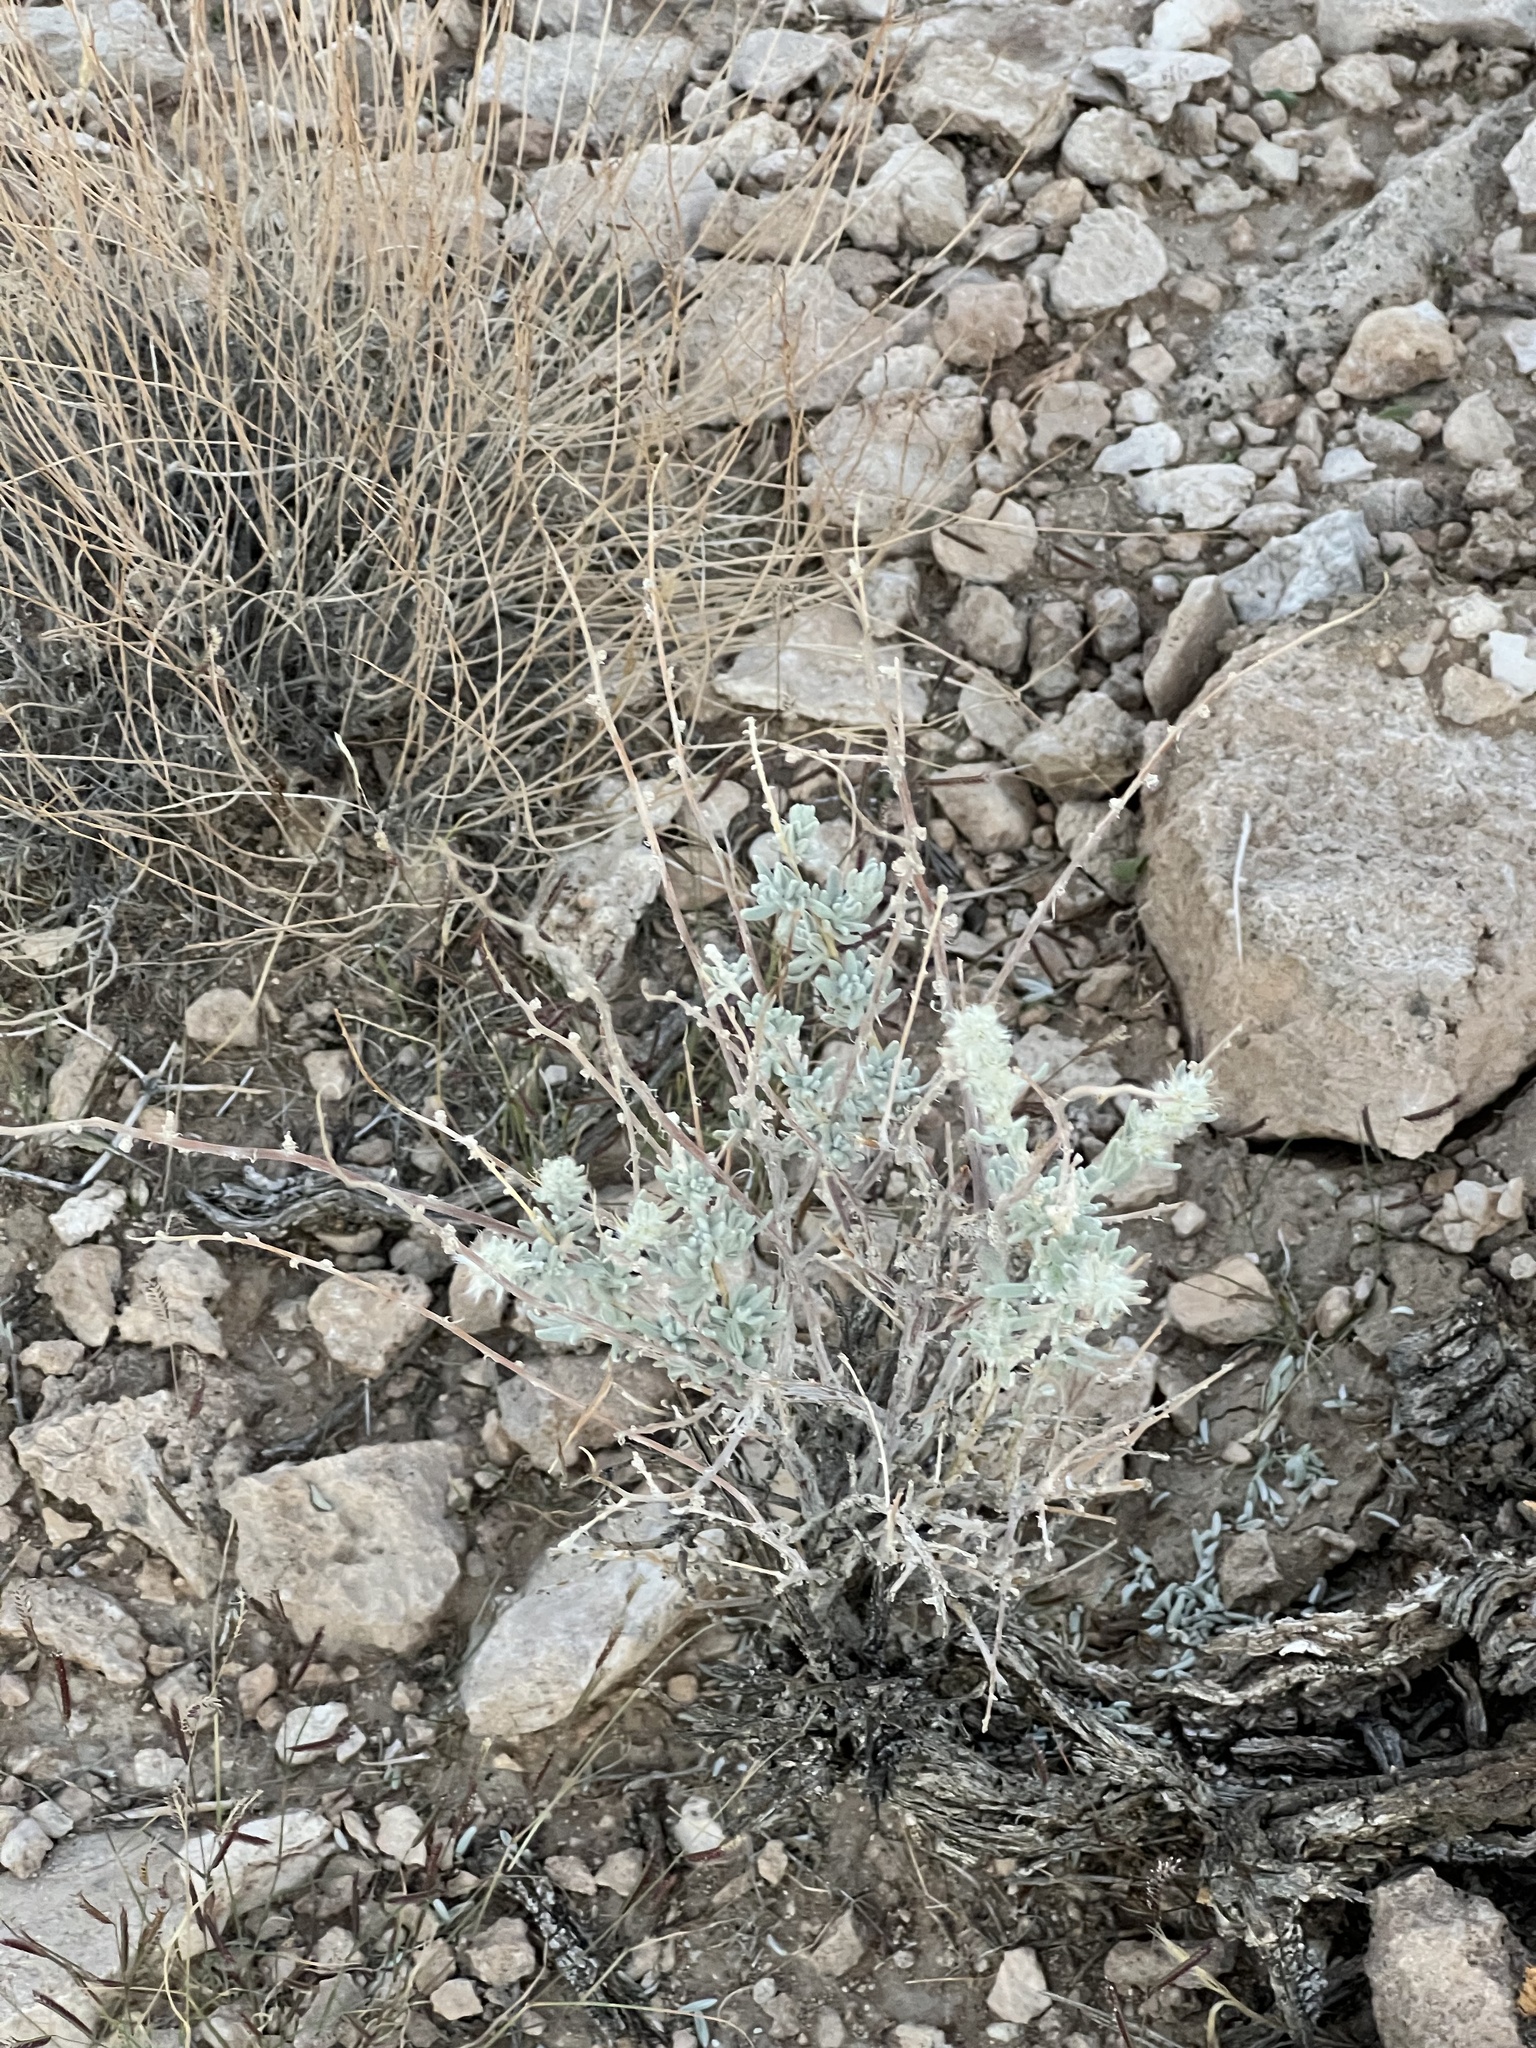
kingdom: Plantae
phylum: Tracheophyta
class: Magnoliopsida
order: Caryophyllales
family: Amaranthaceae
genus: Krascheninnikovia
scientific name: Krascheninnikovia lanata
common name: Winterfat
